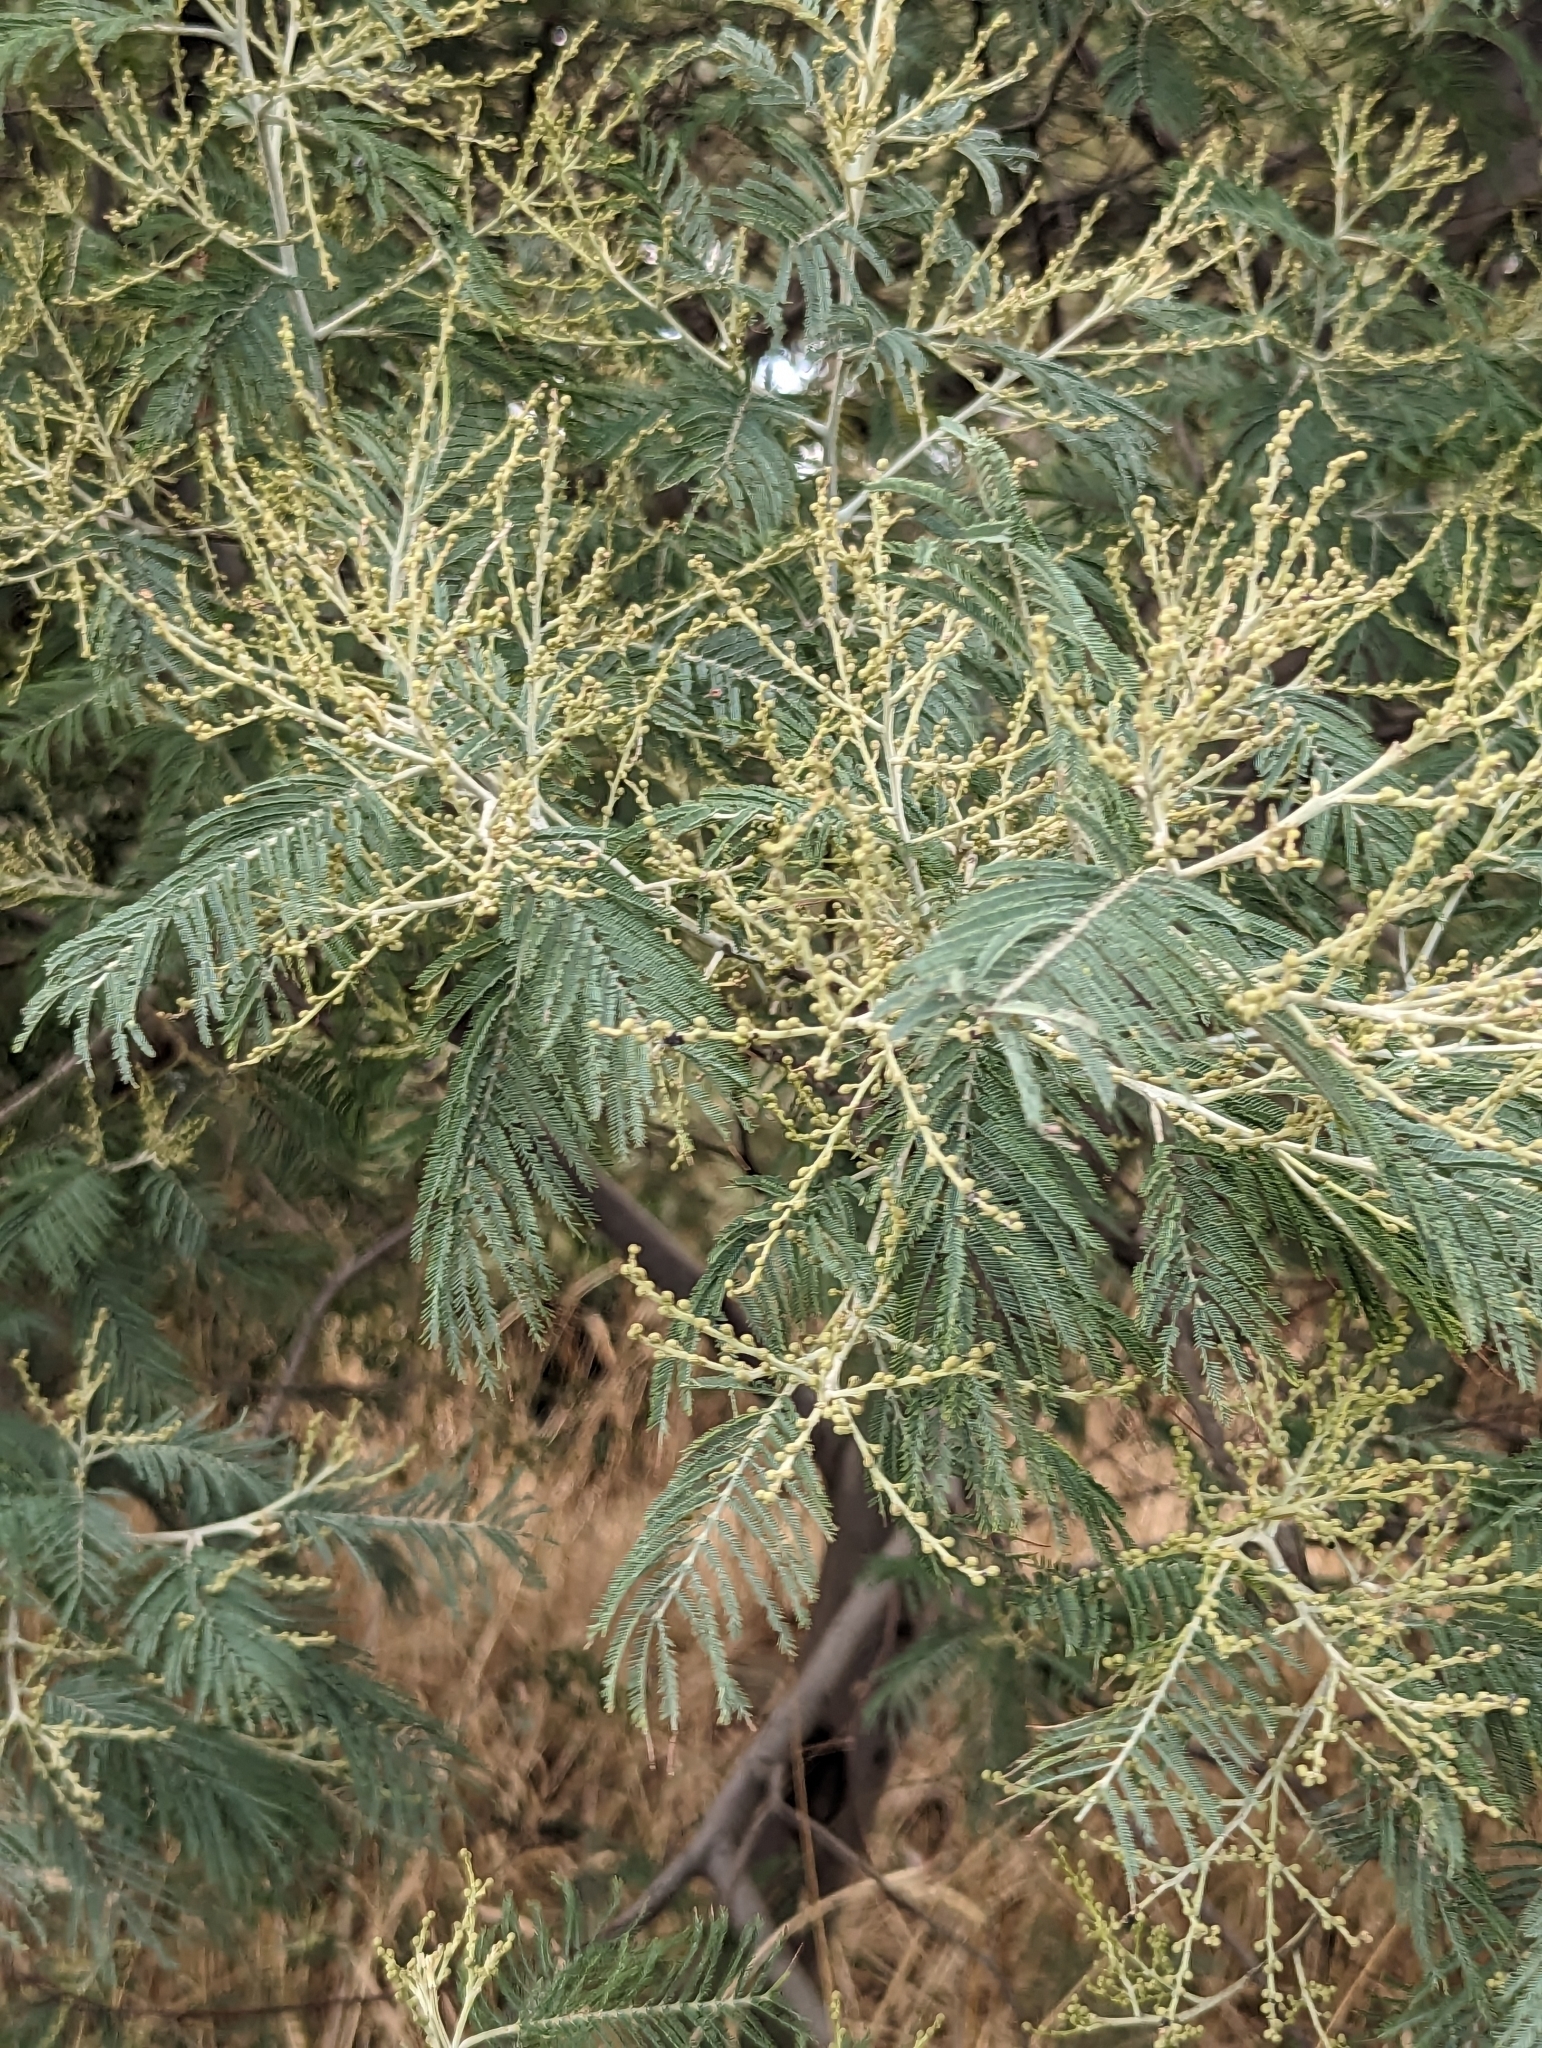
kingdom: Plantae
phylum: Tracheophyta
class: Magnoliopsida
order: Fabales
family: Fabaceae
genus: Acacia
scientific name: Acacia dealbata
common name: Silver wattle
